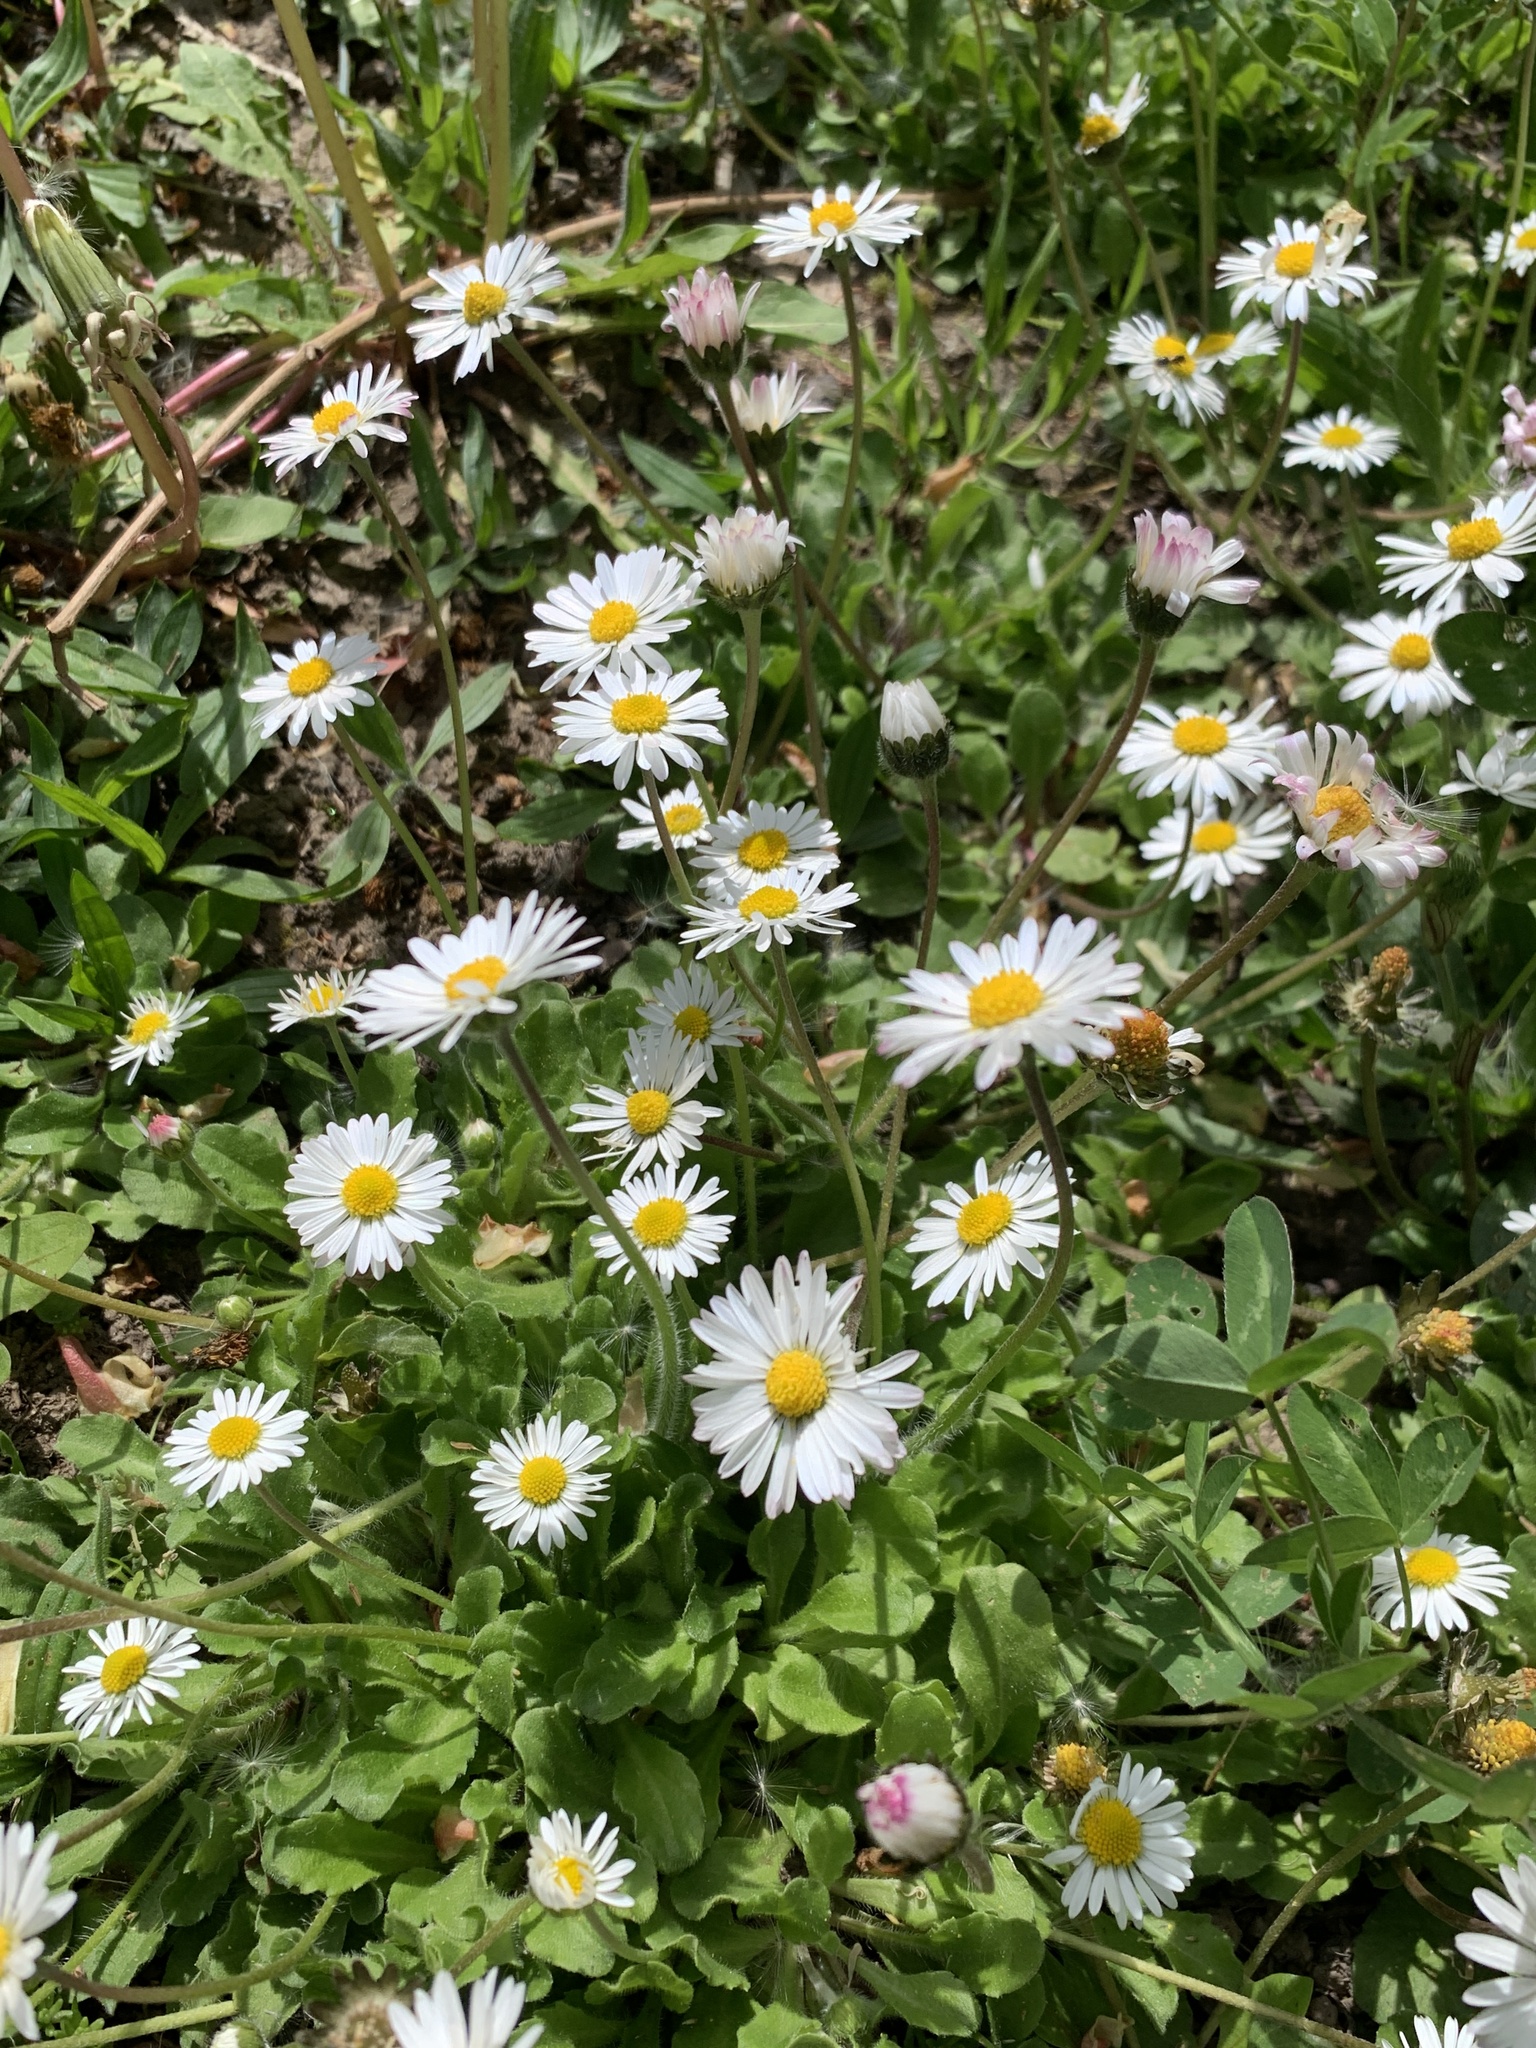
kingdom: Plantae
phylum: Tracheophyta
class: Magnoliopsida
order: Asterales
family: Asteraceae
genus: Bellis
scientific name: Bellis perennis
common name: Lawndaisy
